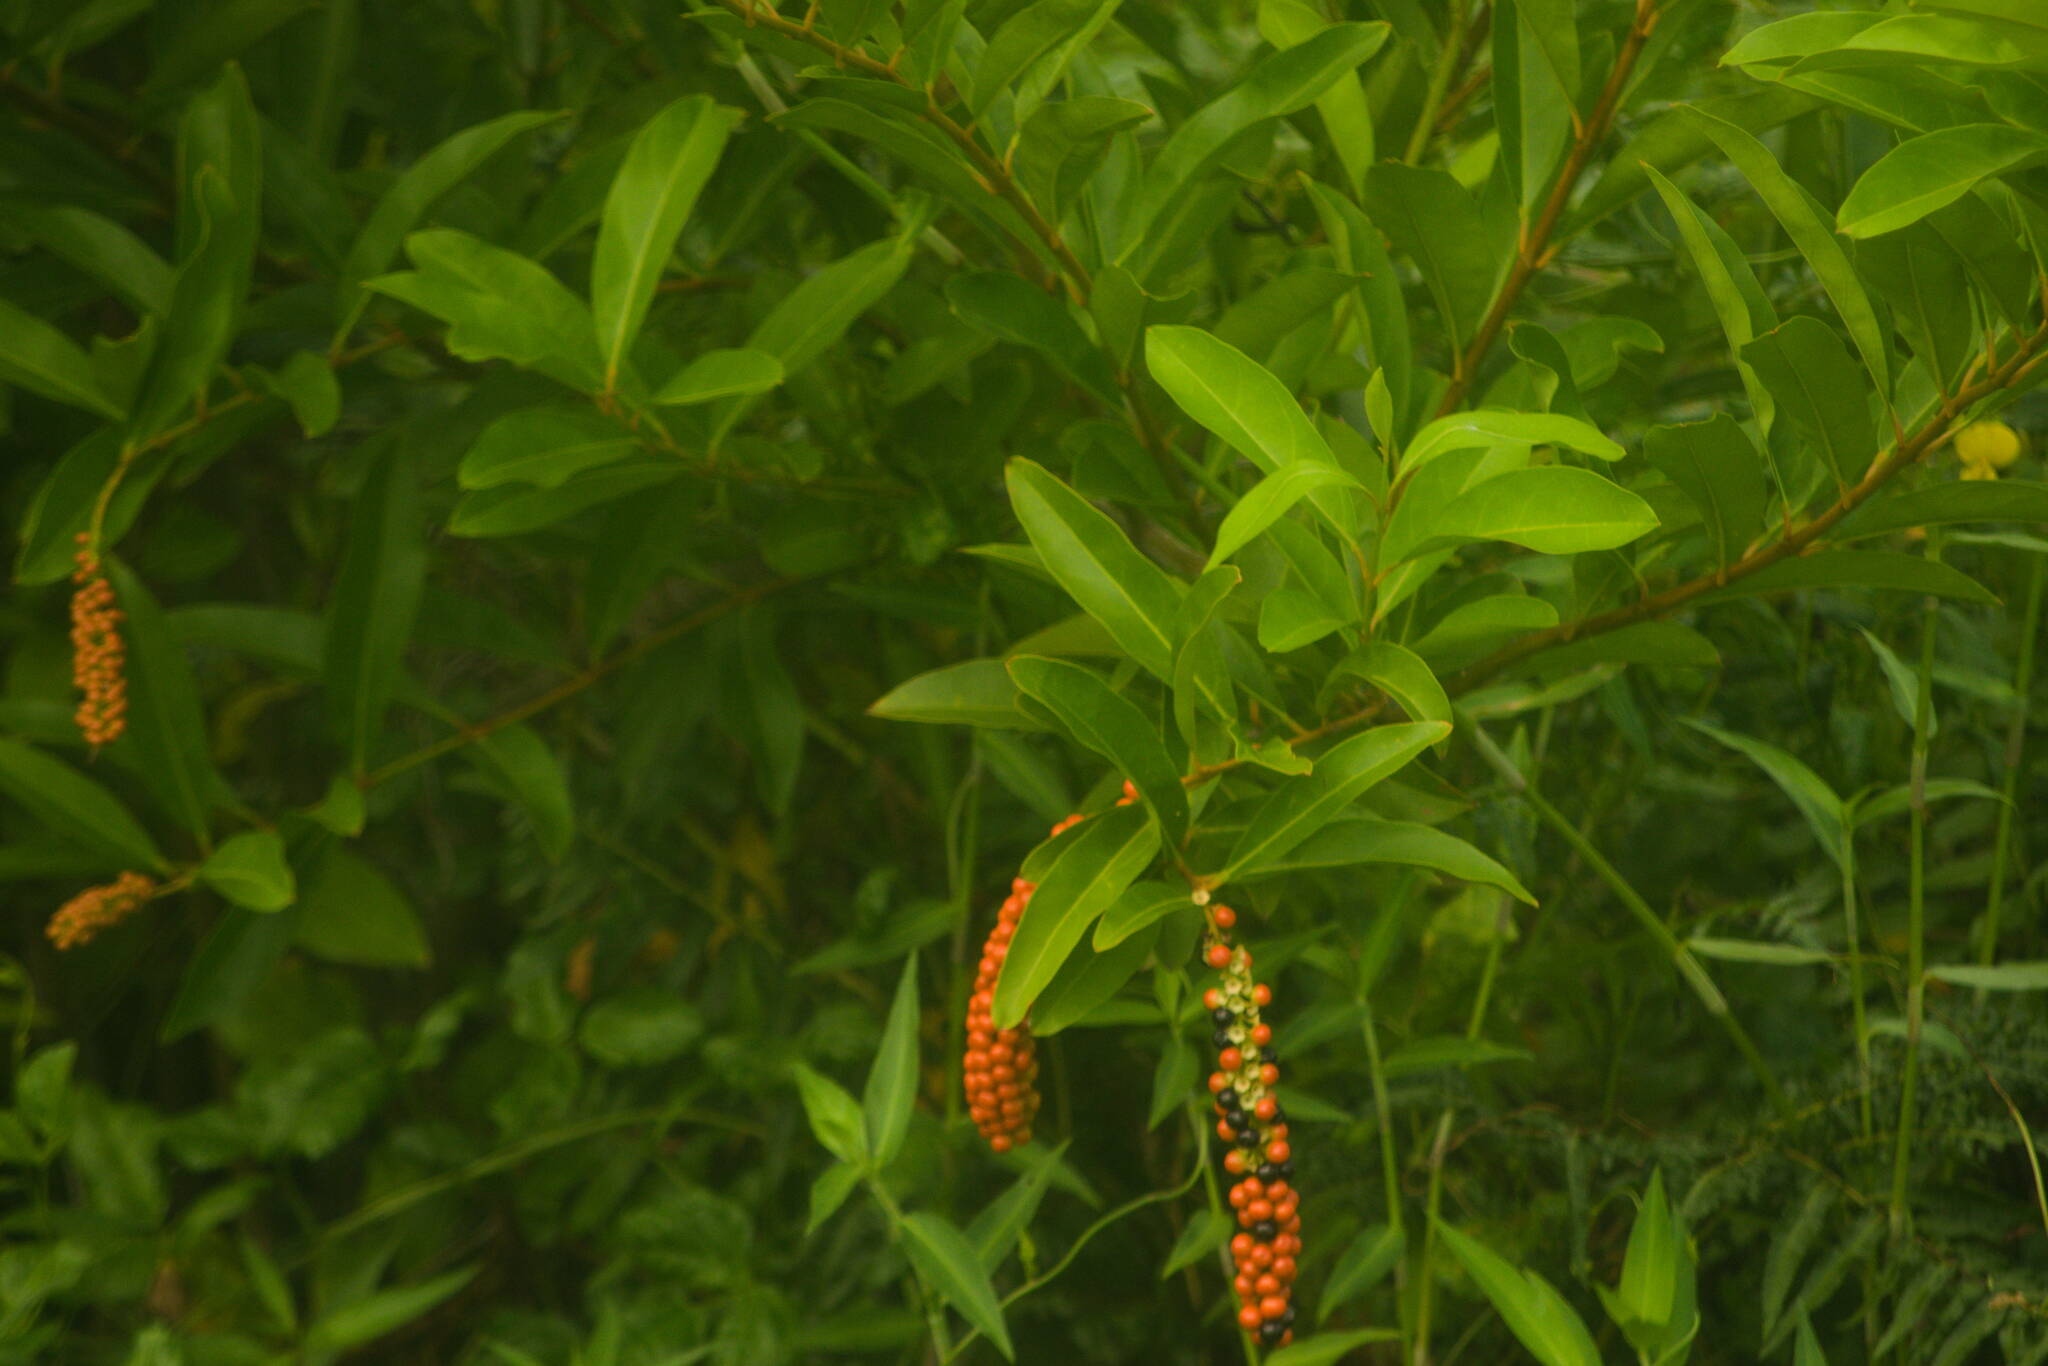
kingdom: Plantae
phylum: Tracheophyta
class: Magnoliopsida
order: Lamiales
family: Verbenaceae
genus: Citharexylum
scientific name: Citharexylum caudatum
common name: Fiddlewood
